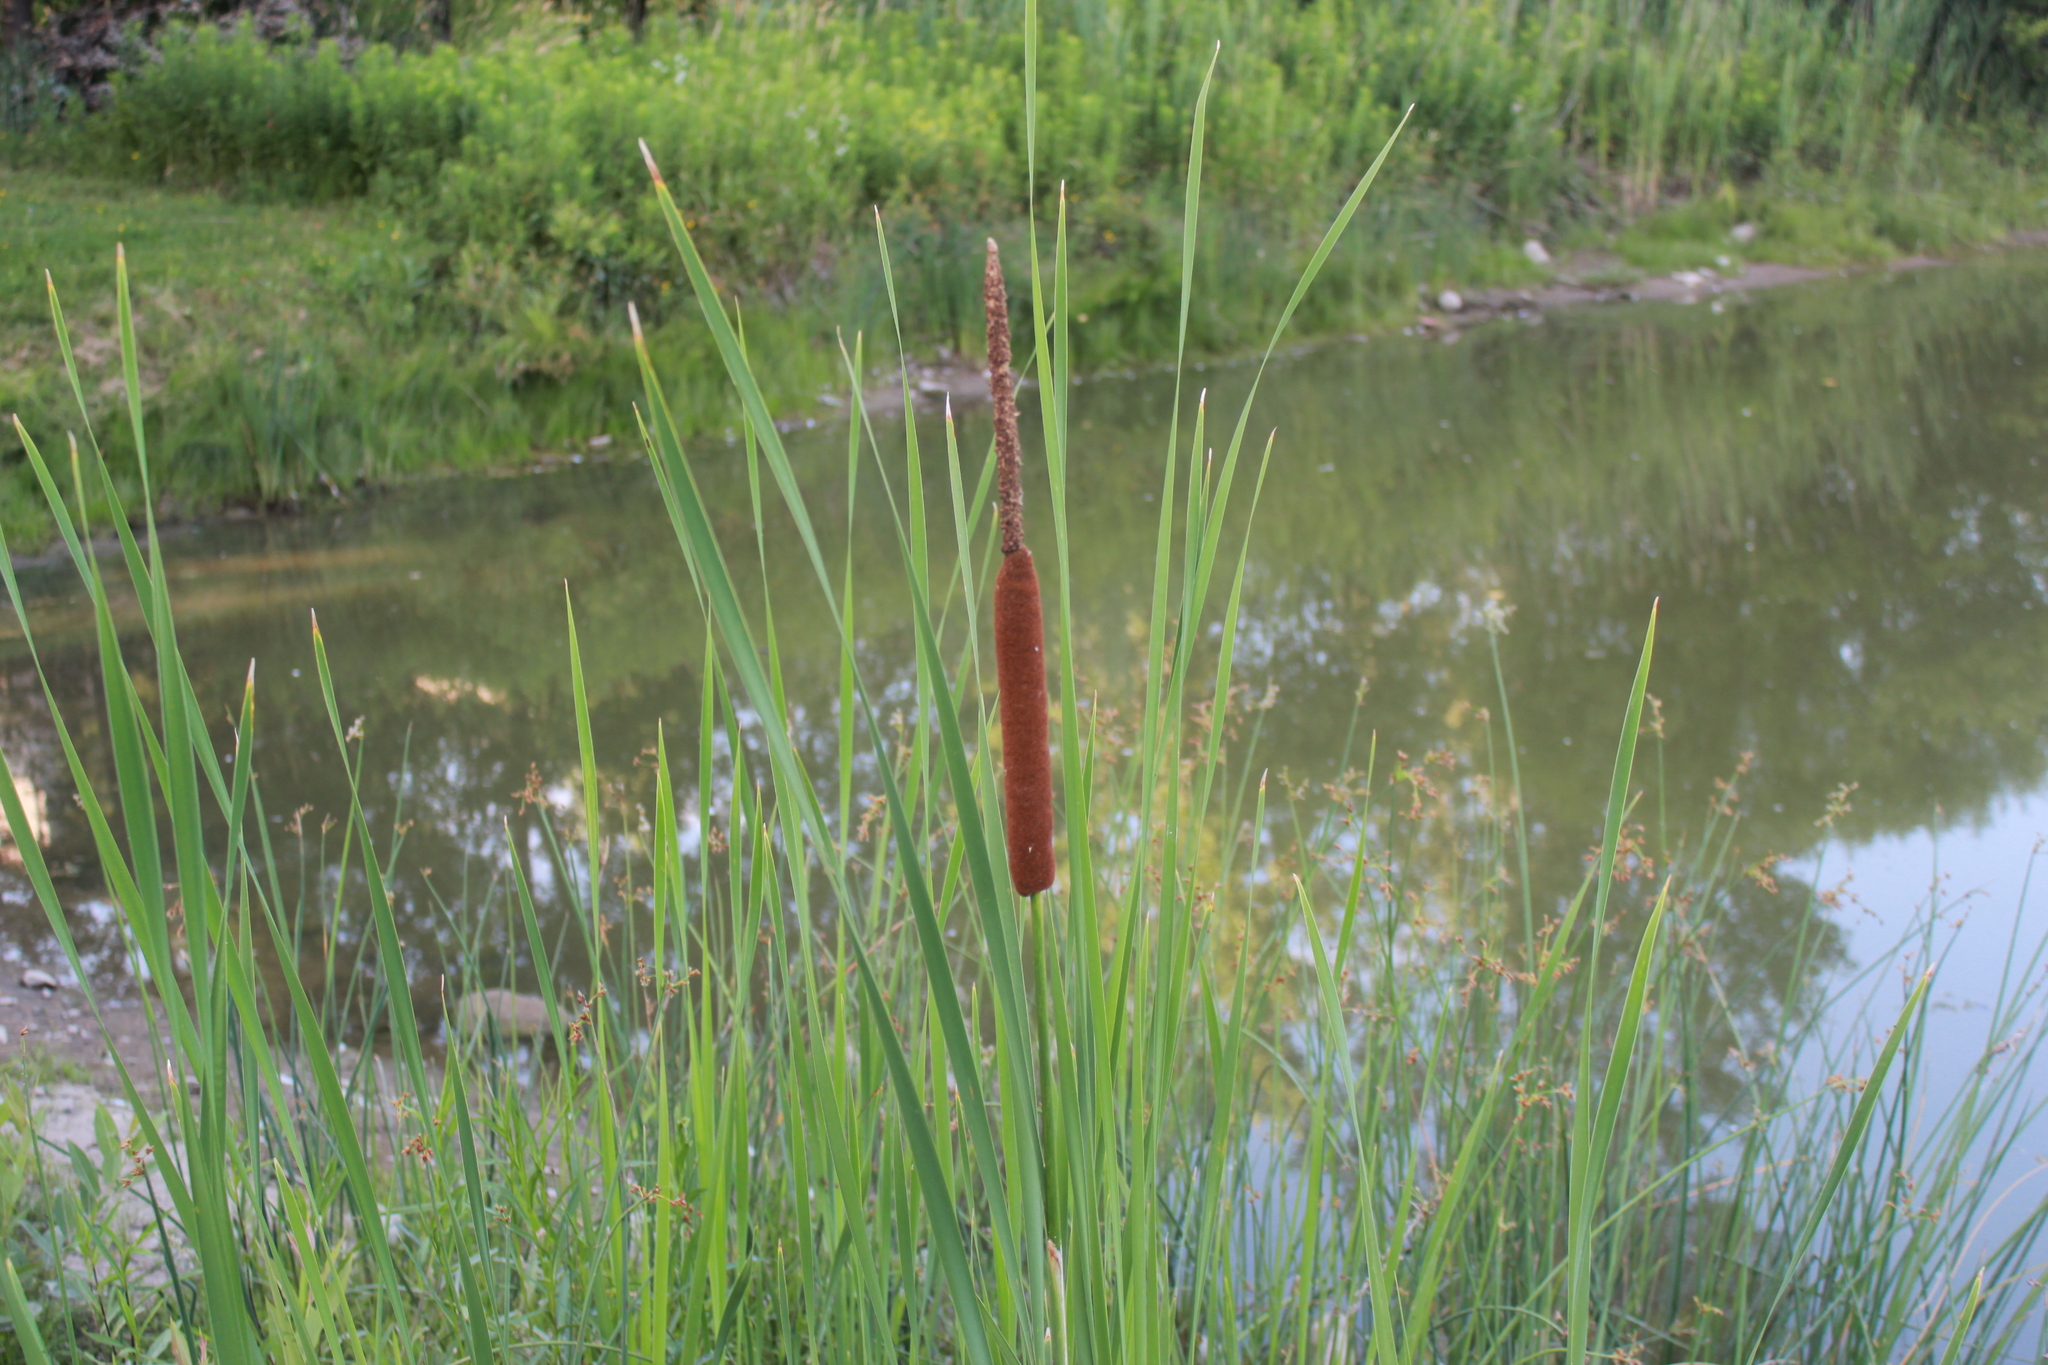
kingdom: Plantae
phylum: Tracheophyta
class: Liliopsida
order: Poales
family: Typhaceae
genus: Typha
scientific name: Typha angustifolia
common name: Lesser bulrush
